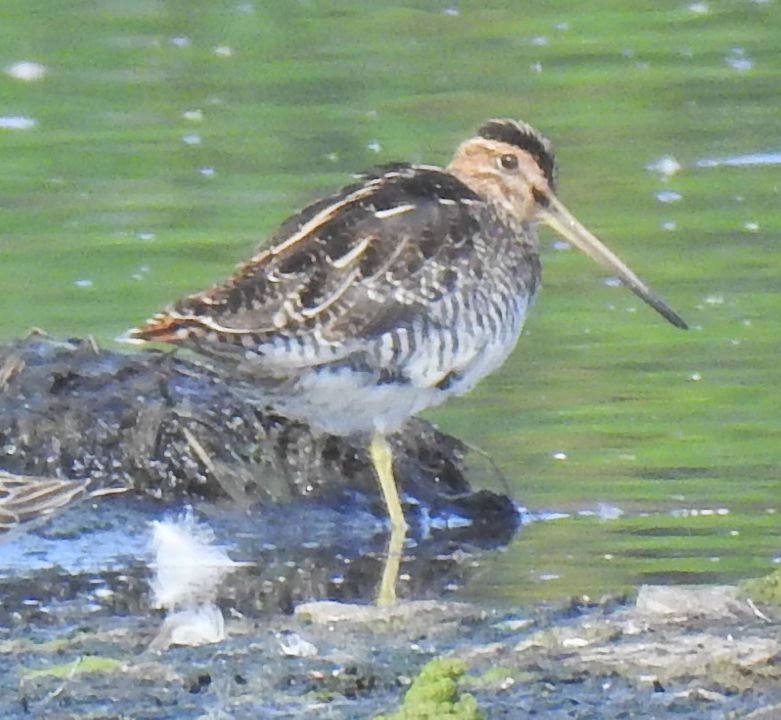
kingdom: Animalia
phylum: Chordata
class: Aves
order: Charadriiformes
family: Scolopacidae
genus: Gallinago
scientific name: Gallinago delicata
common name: Wilson's snipe
